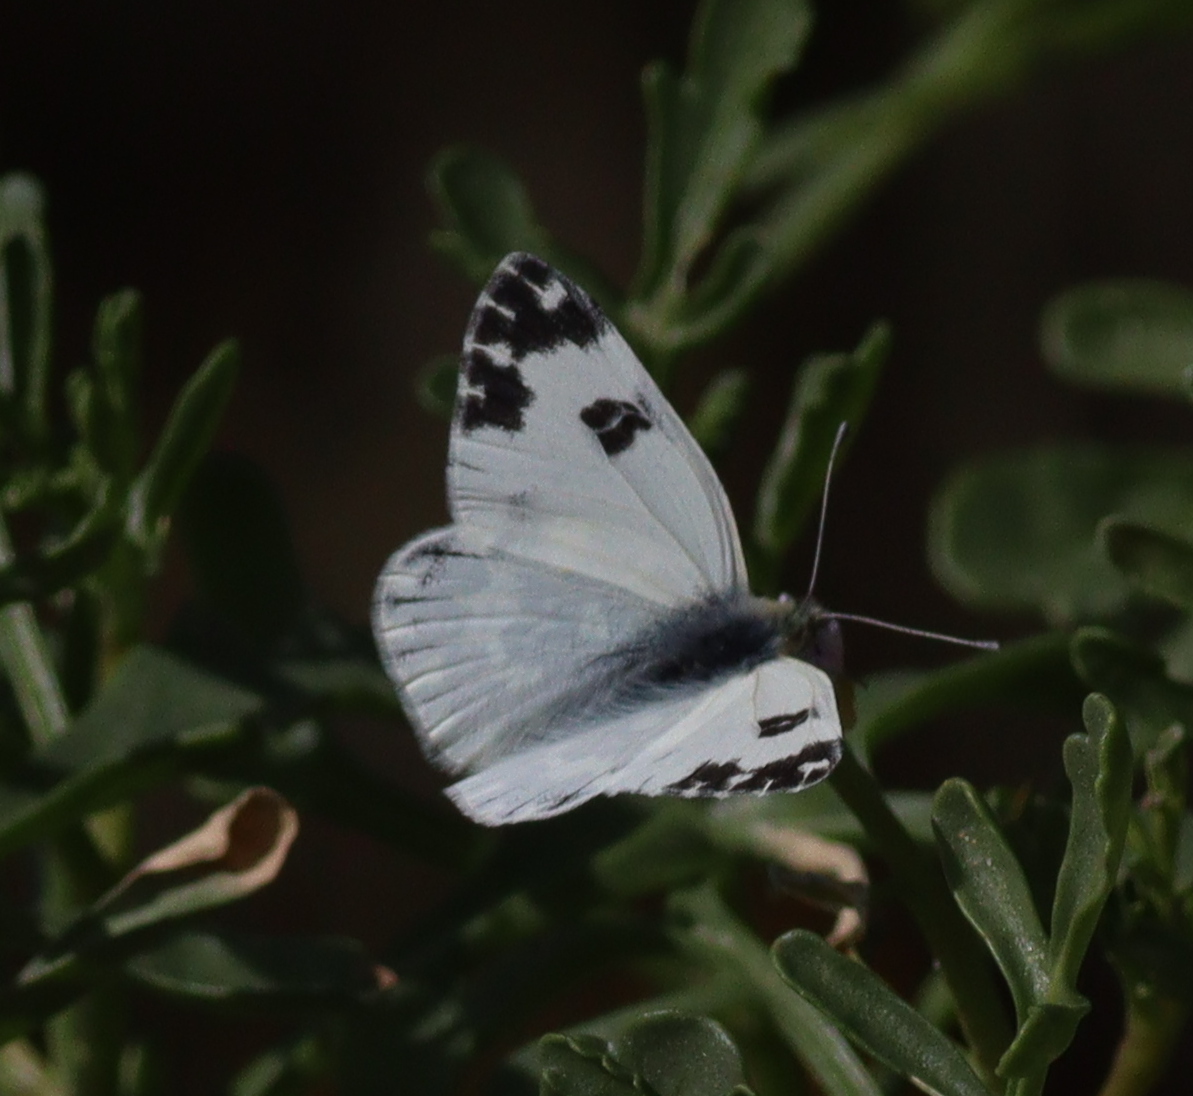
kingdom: Animalia
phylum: Arthropoda
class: Insecta
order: Lepidoptera
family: Pieridae
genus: Pontia
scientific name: Pontia daplidice
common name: Bath white
